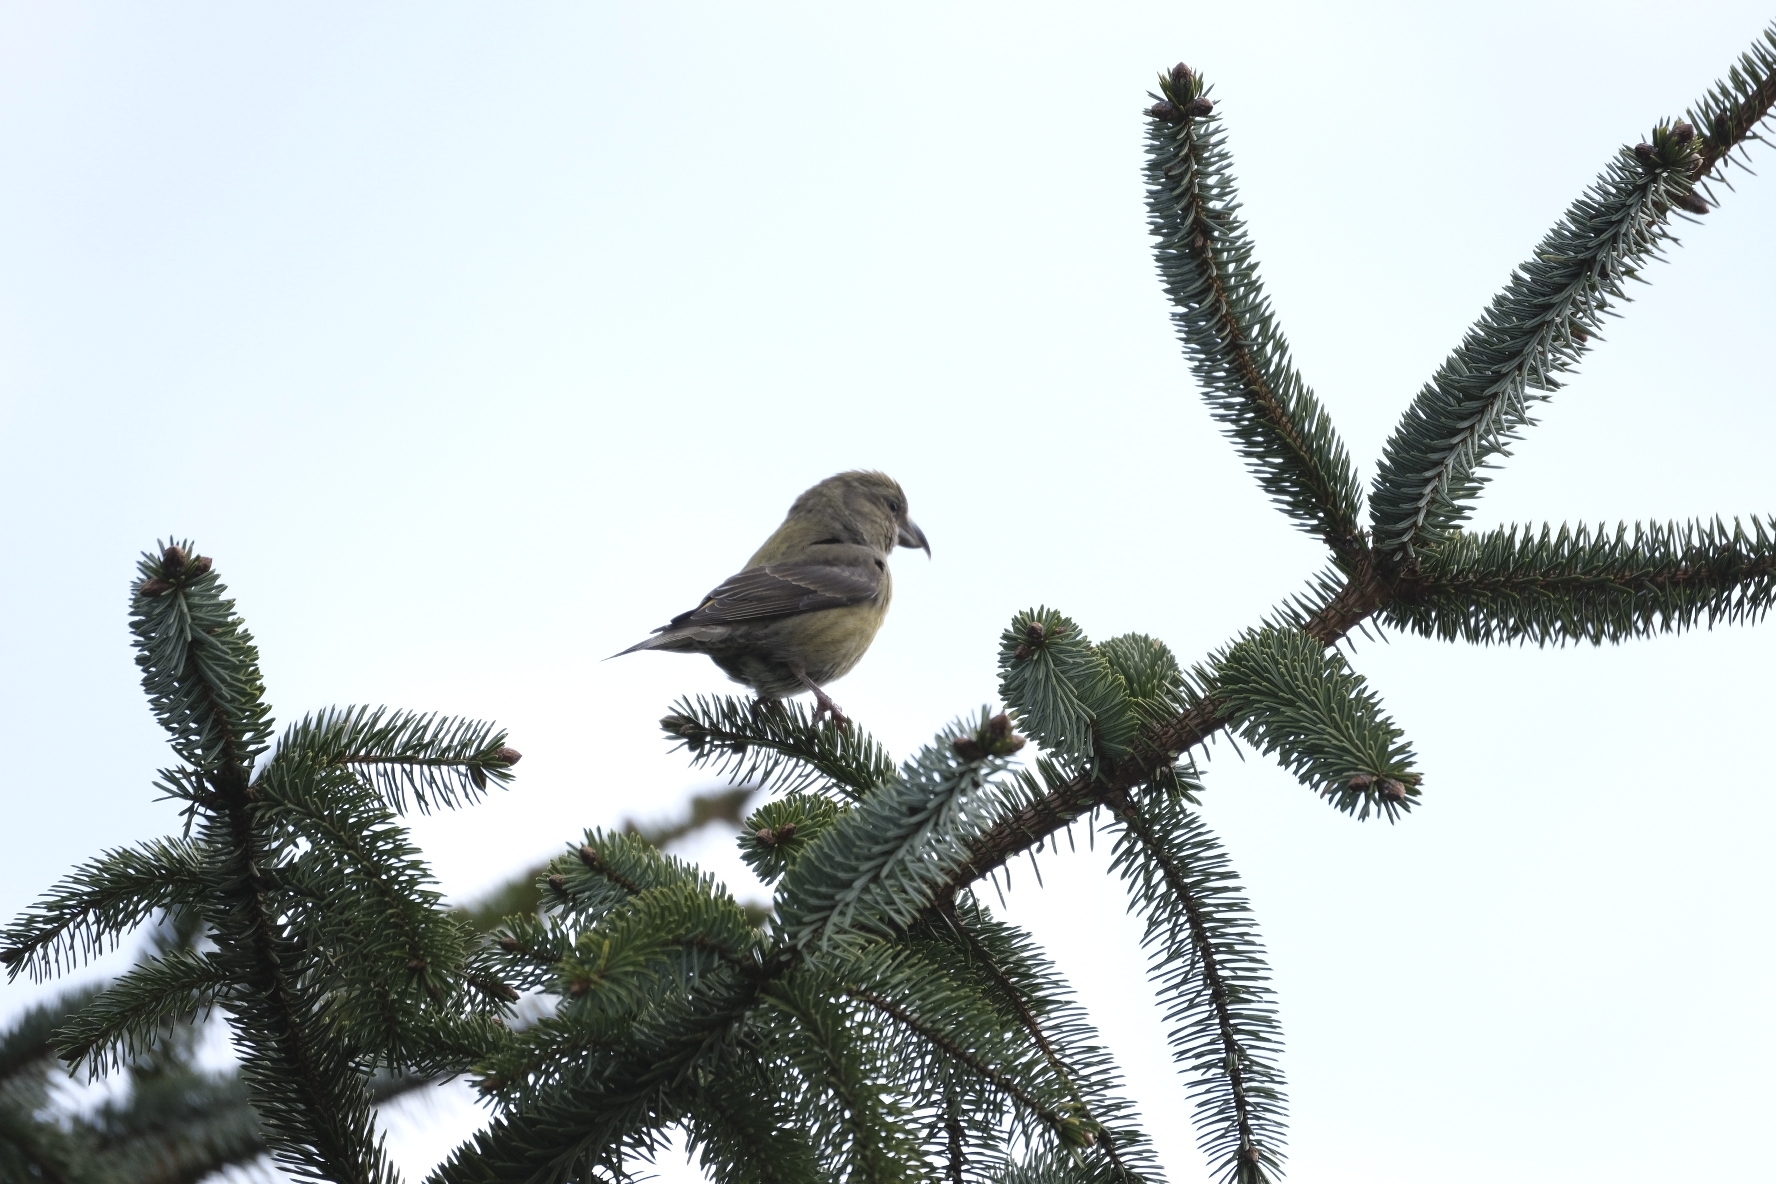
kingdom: Animalia
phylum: Chordata
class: Aves
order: Passeriformes
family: Fringillidae
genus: Loxia
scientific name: Loxia
